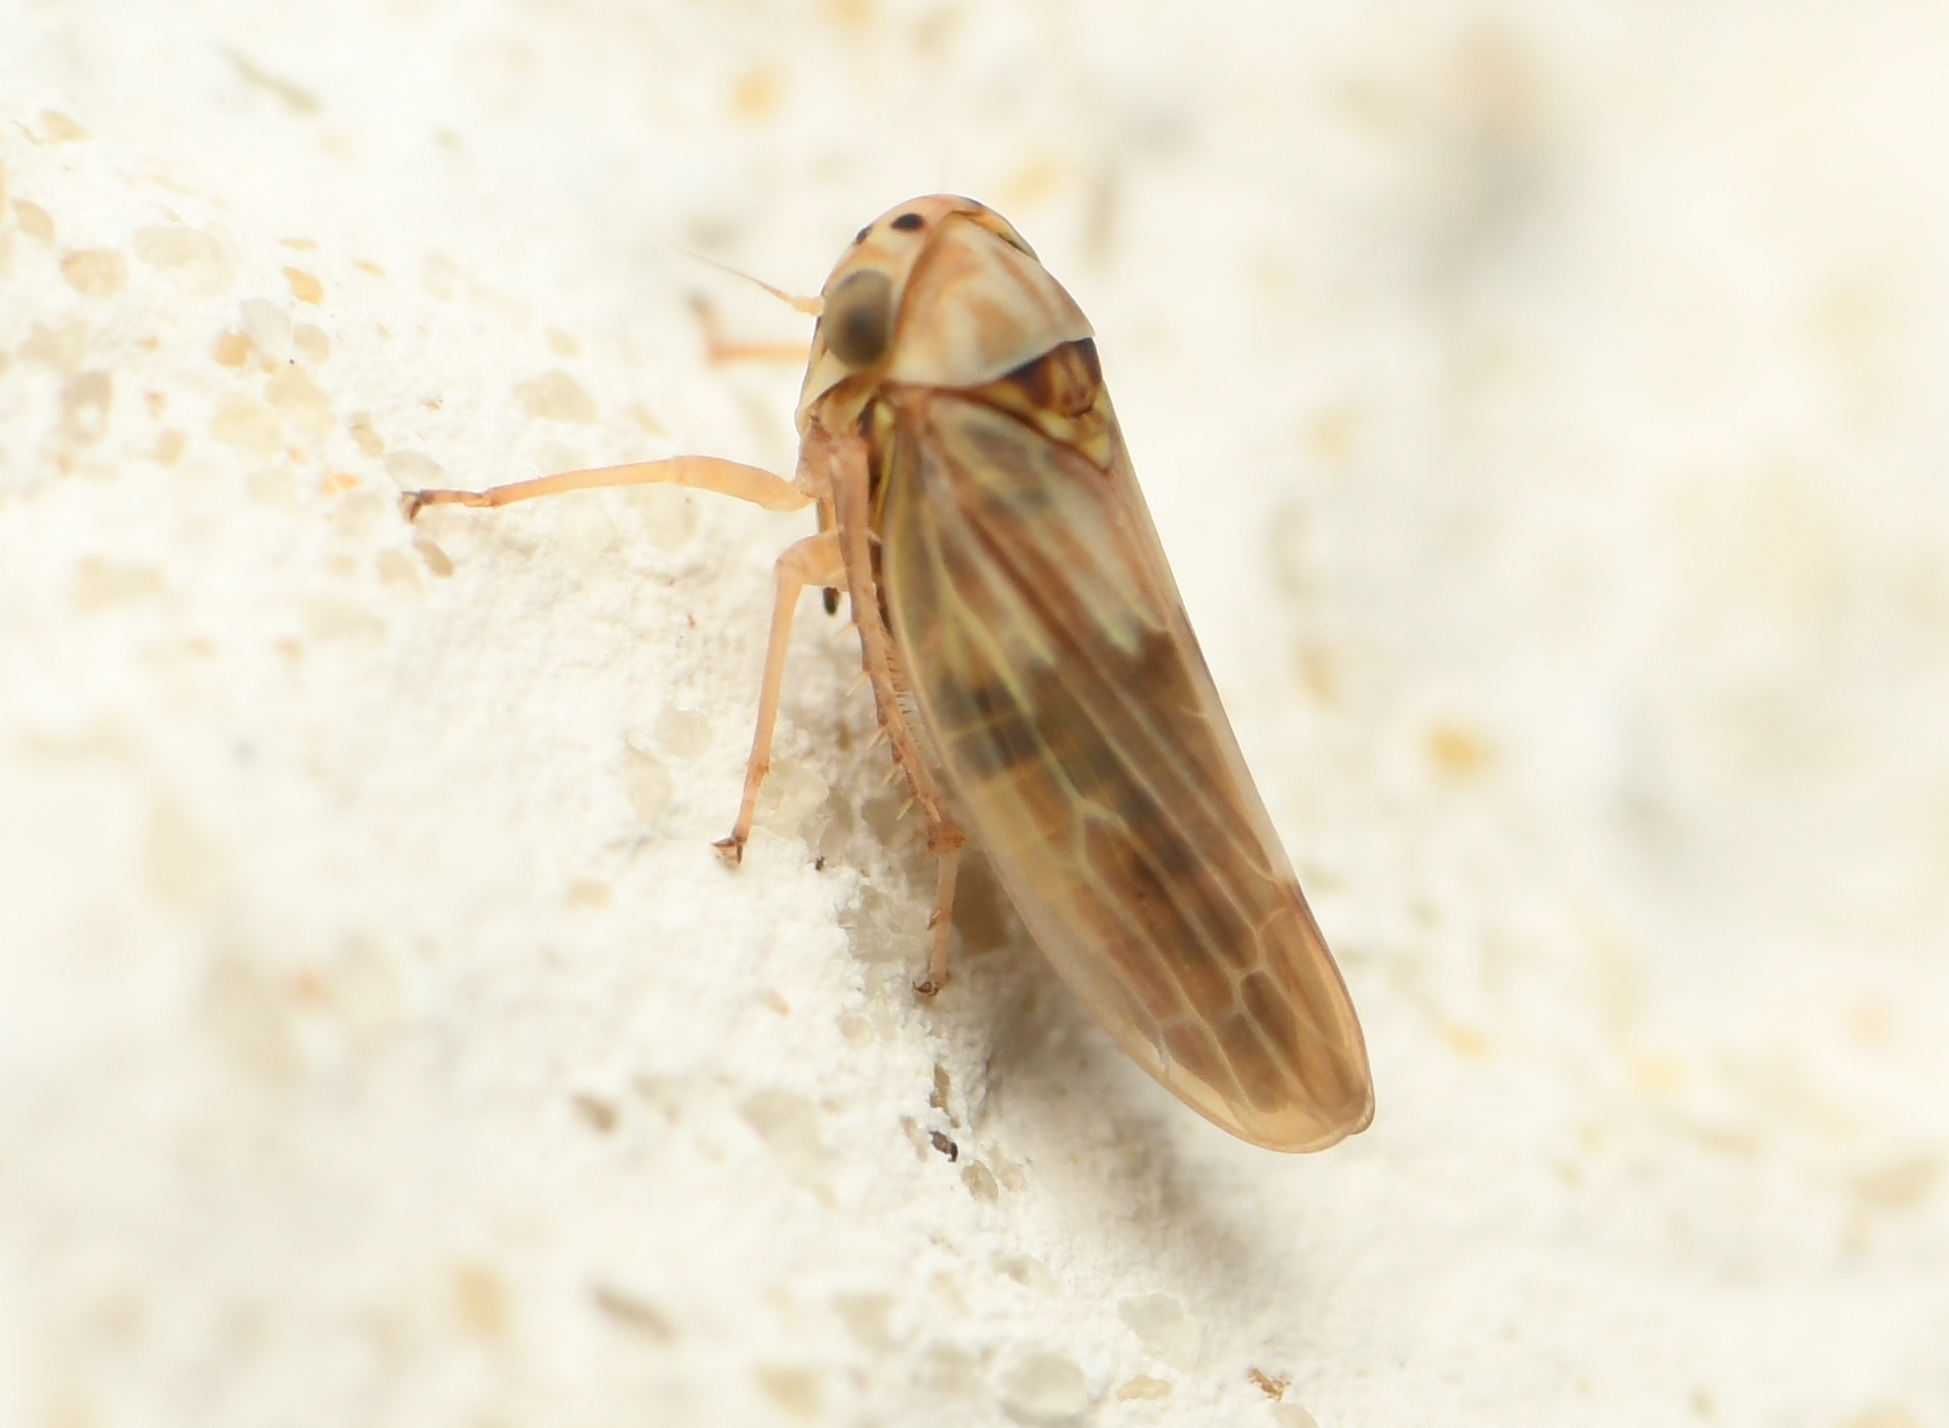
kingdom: Animalia
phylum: Arthropoda
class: Insecta
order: Hemiptera
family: Cicadellidae
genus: Agallia
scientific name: Agallia albidula
